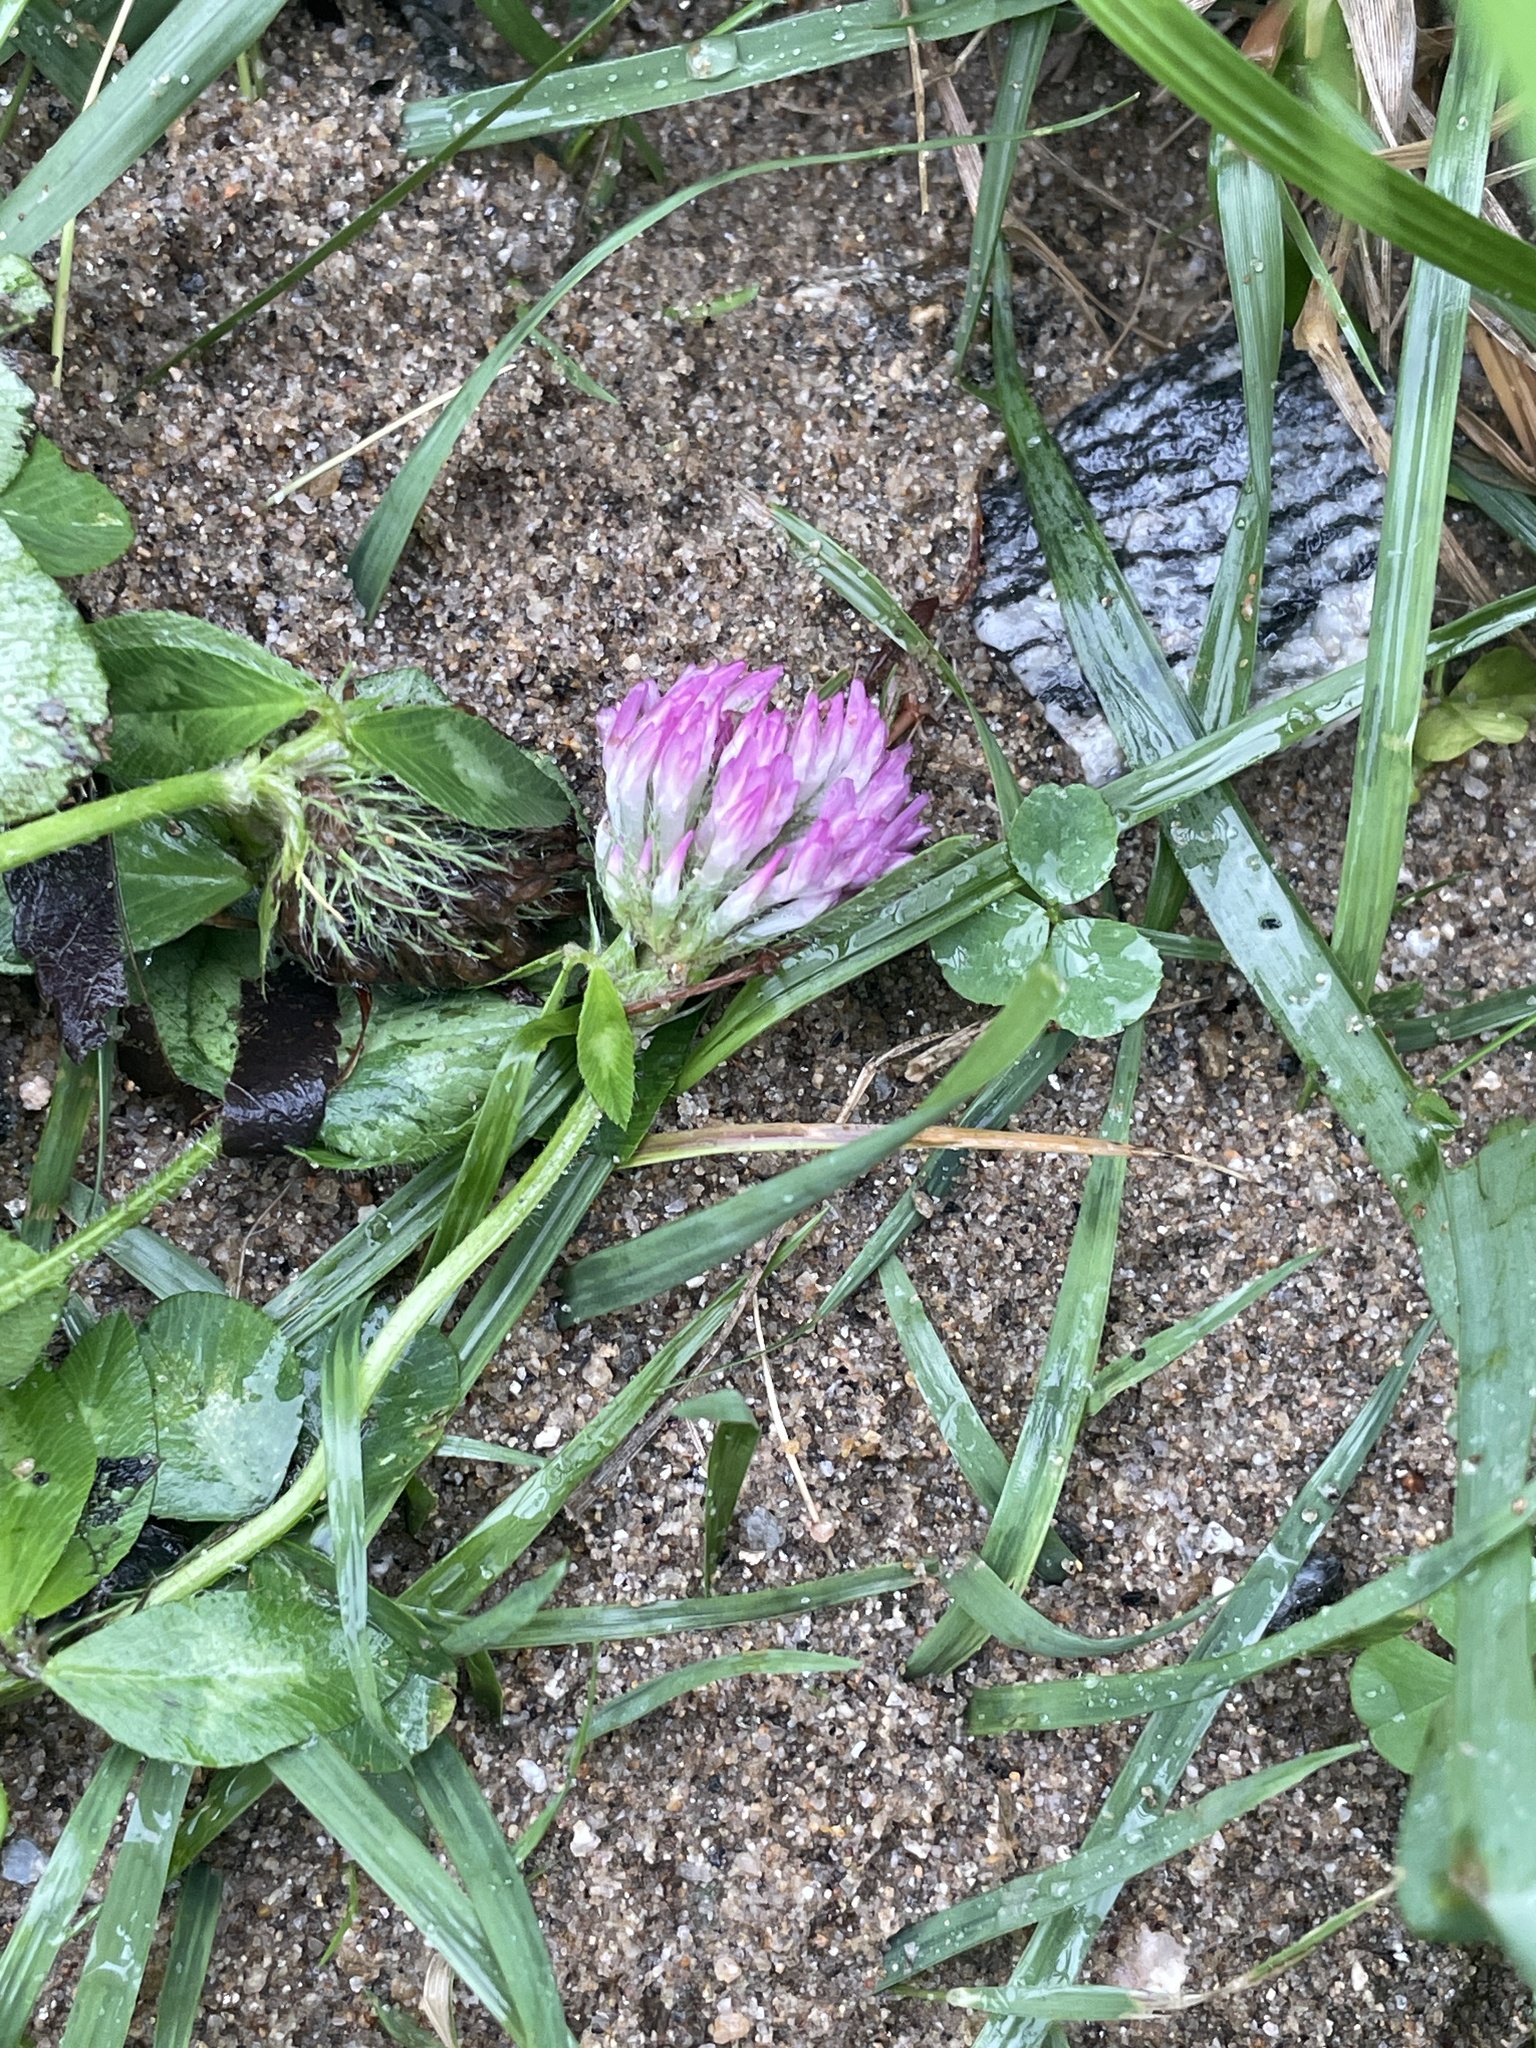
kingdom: Plantae
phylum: Tracheophyta
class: Magnoliopsida
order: Fabales
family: Fabaceae
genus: Trifolium
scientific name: Trifolium pratense
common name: Red clover
